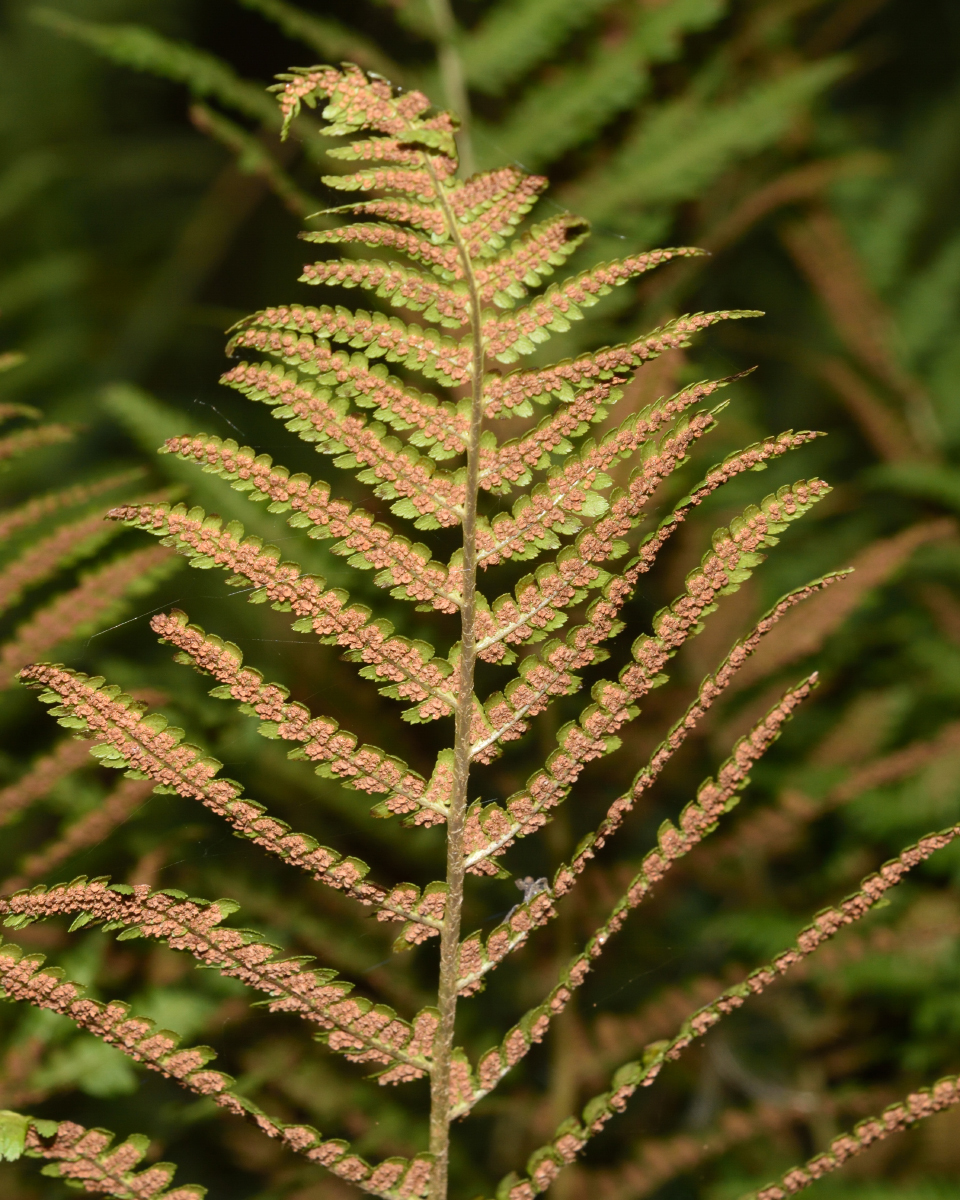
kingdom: Plantae
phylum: Tracheophyta
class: Polypodiopsida
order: Polypodiales
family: Dryopteridaceae
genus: Dryopteris
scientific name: Dryopteris filix-mas
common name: Male fern
